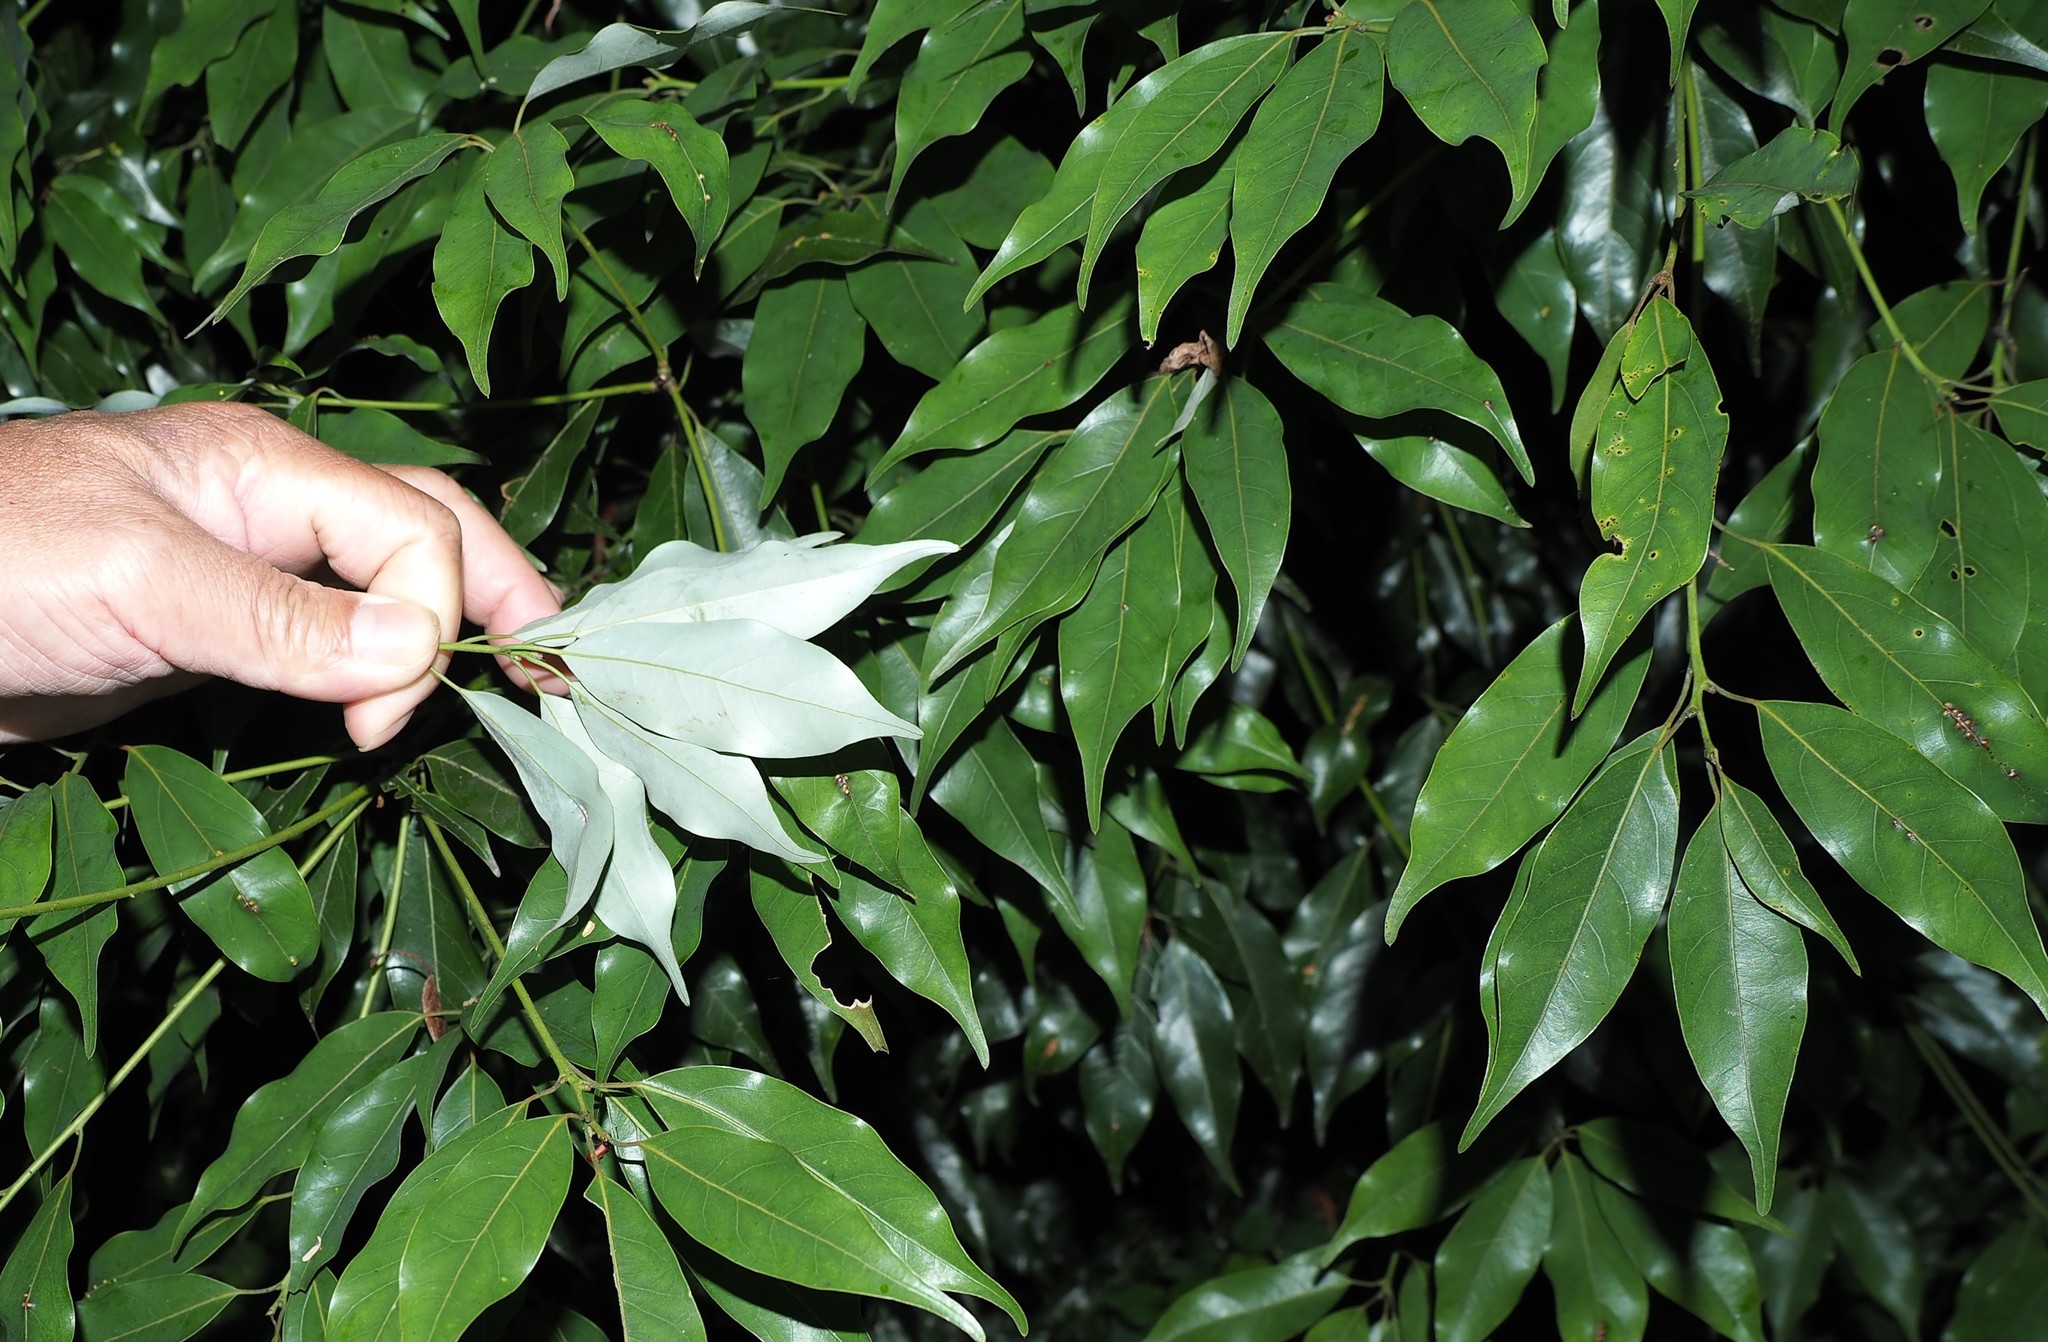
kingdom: Plantae
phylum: Tracheophyta
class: Magnoliopsida
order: Laurales
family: Lauraceae
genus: Neolitsea
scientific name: Neolitsea acuminatissima
